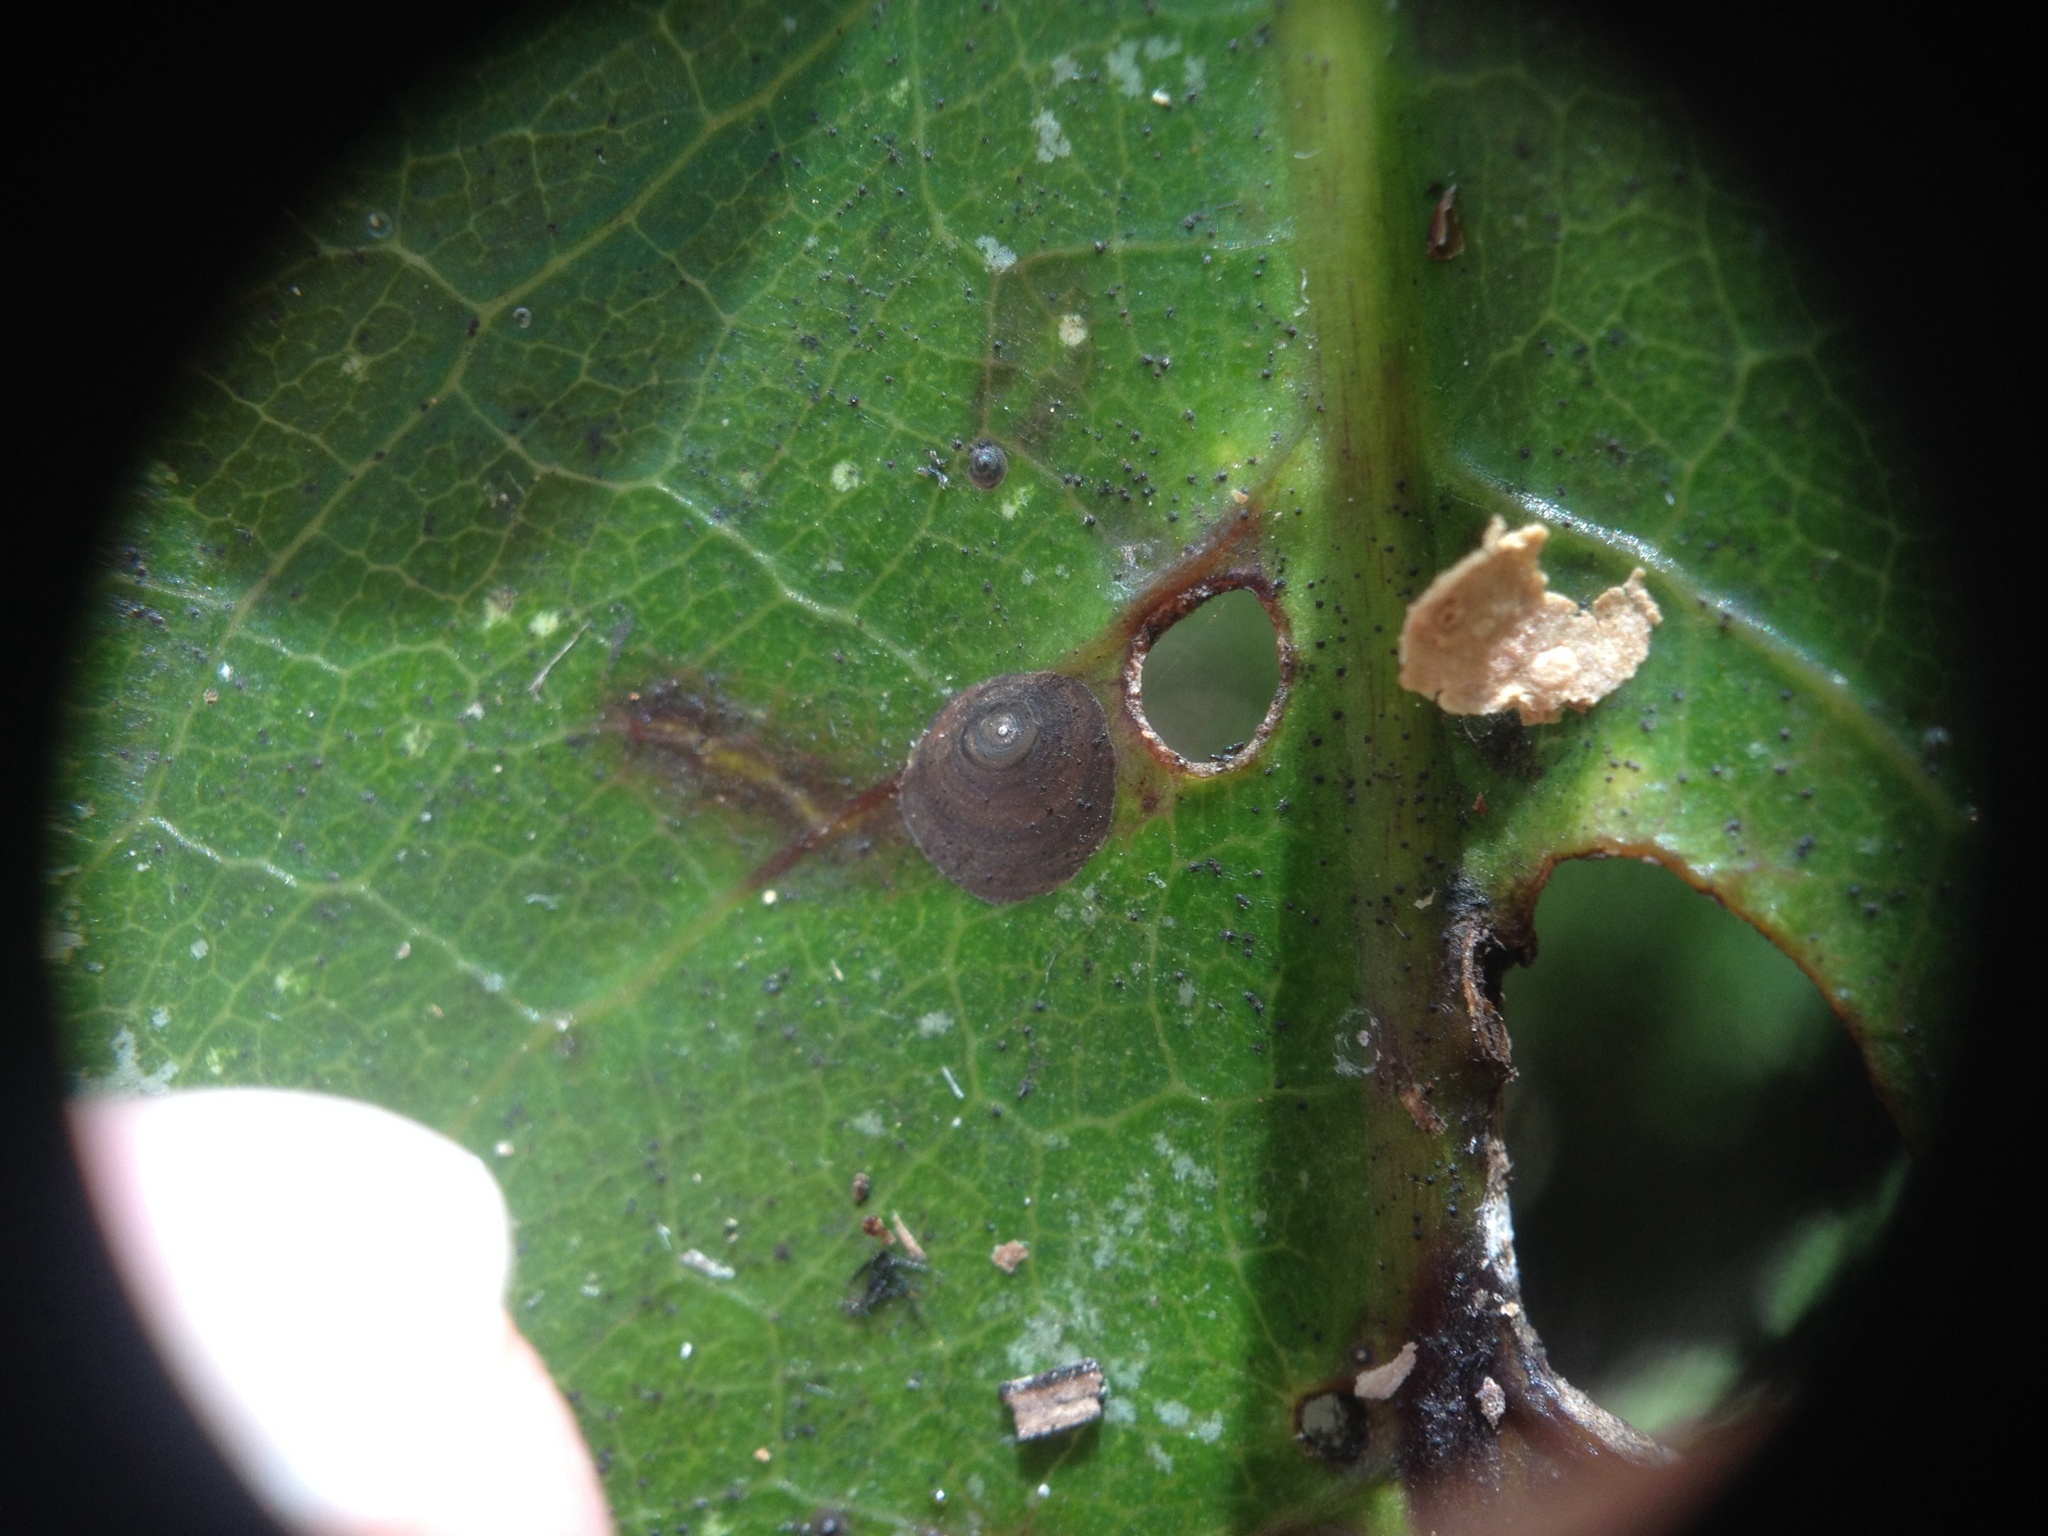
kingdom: Animalia
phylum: Arthropoda
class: Insecta
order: Hemiptera
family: Diaspididae
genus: Lindingaspis
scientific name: Lindingaspis rossi
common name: Araucaria black scale
